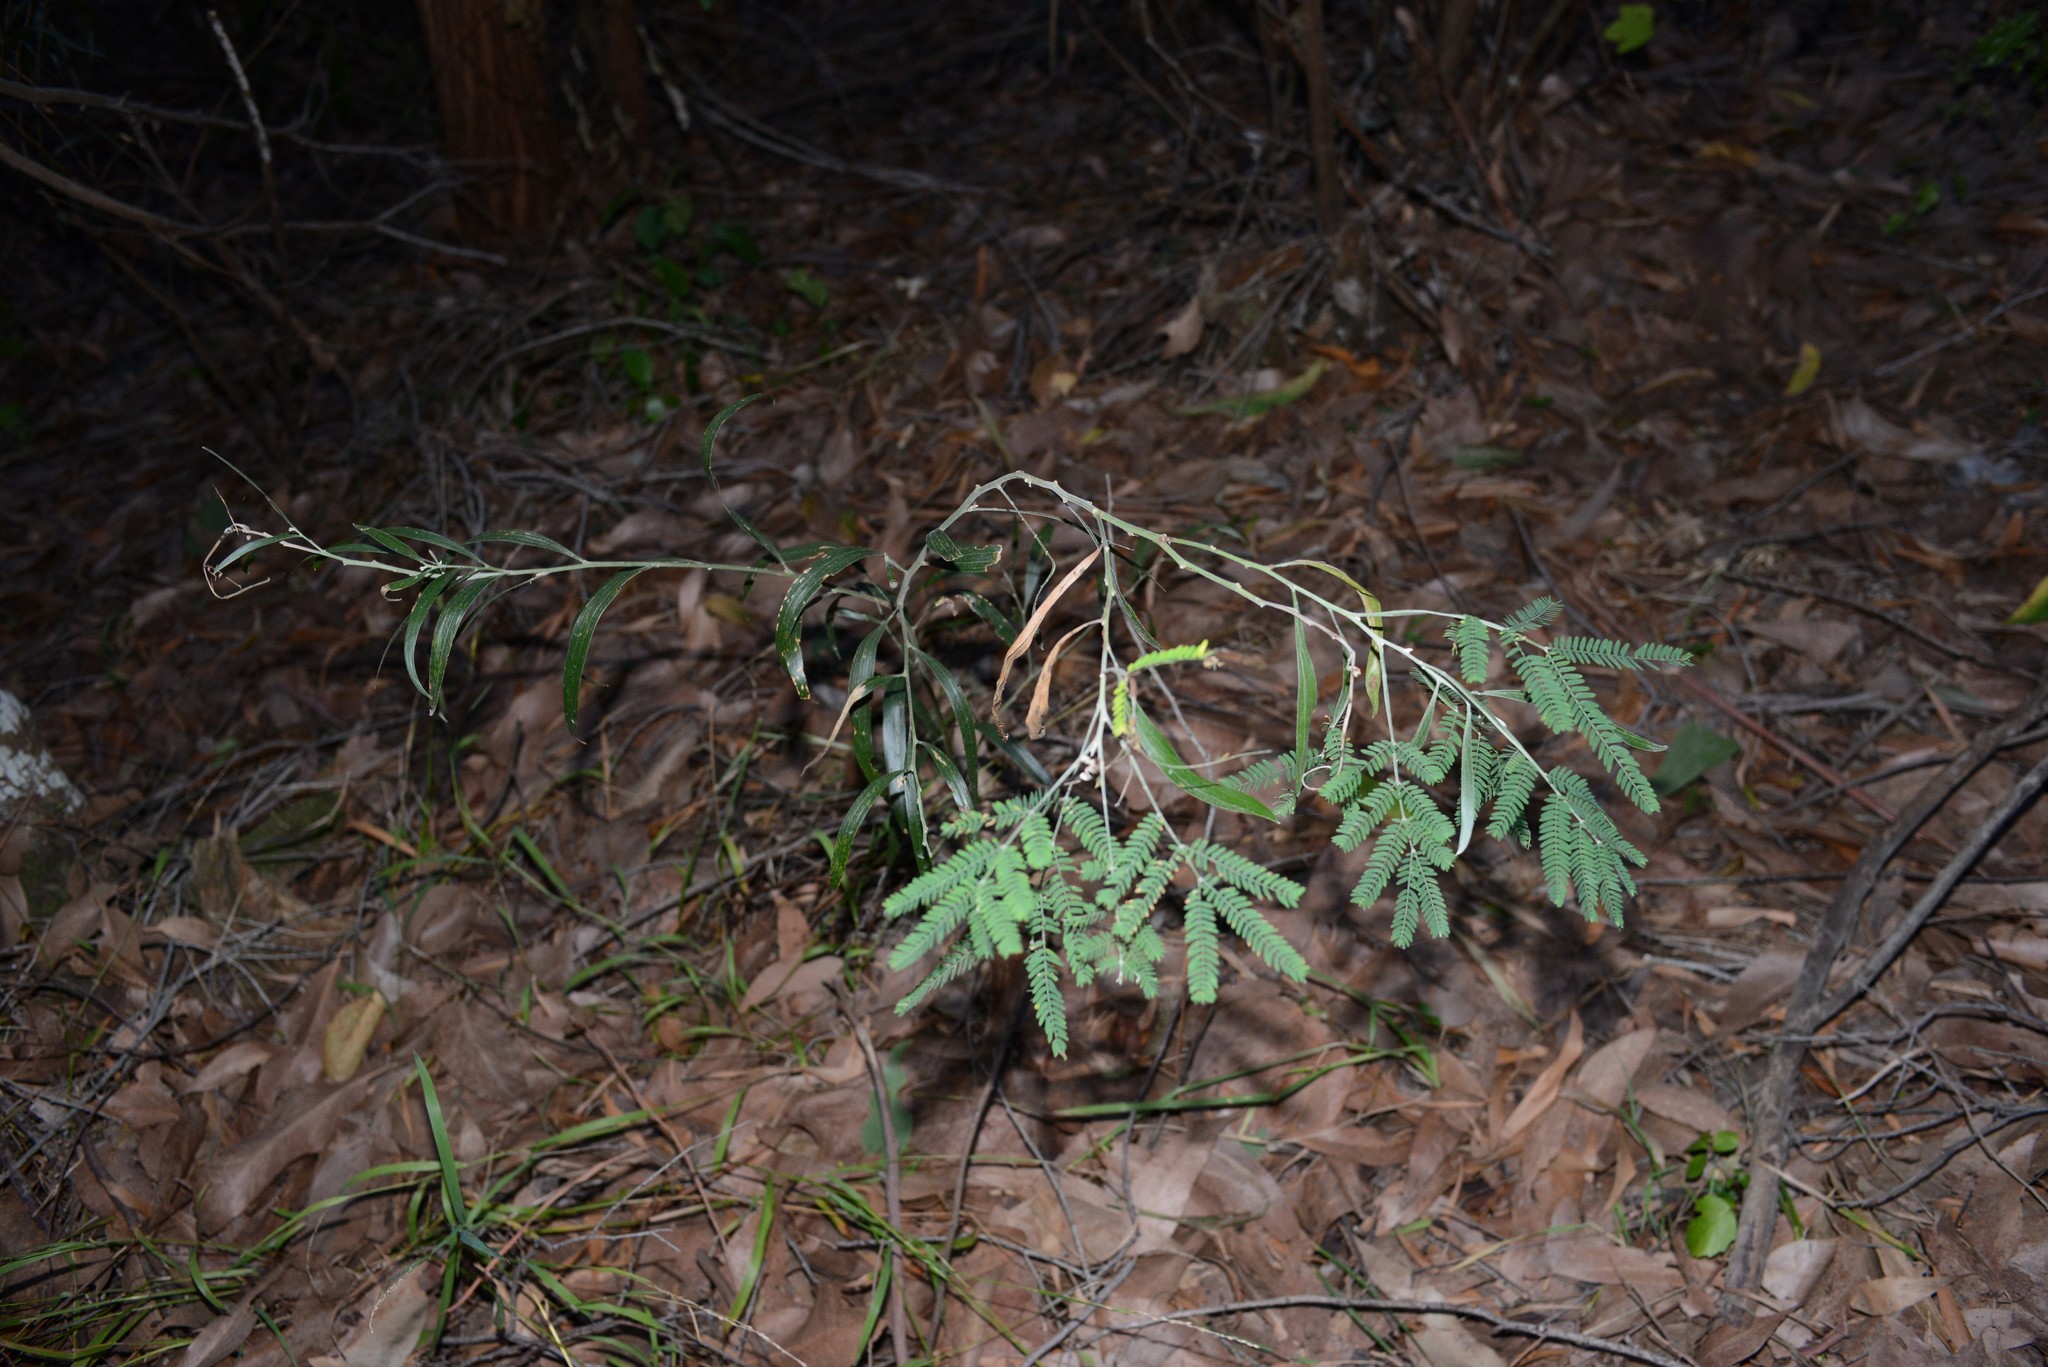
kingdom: Plantae
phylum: Tracheophyta
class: Magnoliopsida
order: Fabales
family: Fabaceae
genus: Acacia
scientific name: Acacia melanoxylon
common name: Blackwood
